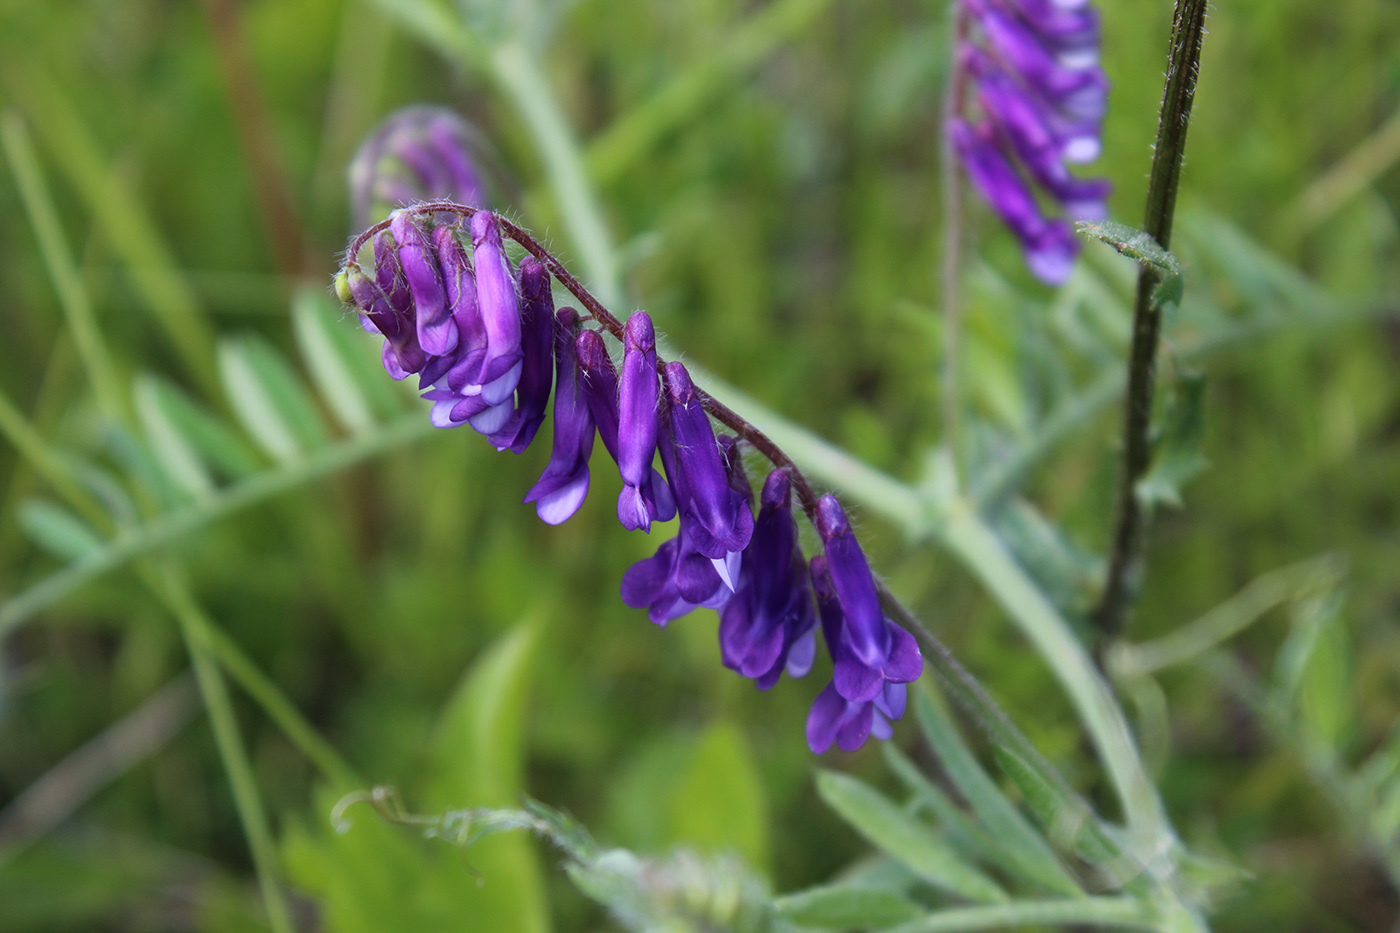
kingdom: Plantae
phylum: Tracheophyta
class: Magnoliopsida
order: Fabales
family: Fabaceae
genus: Vicia
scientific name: Vicia villosa
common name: Fodder vetch
